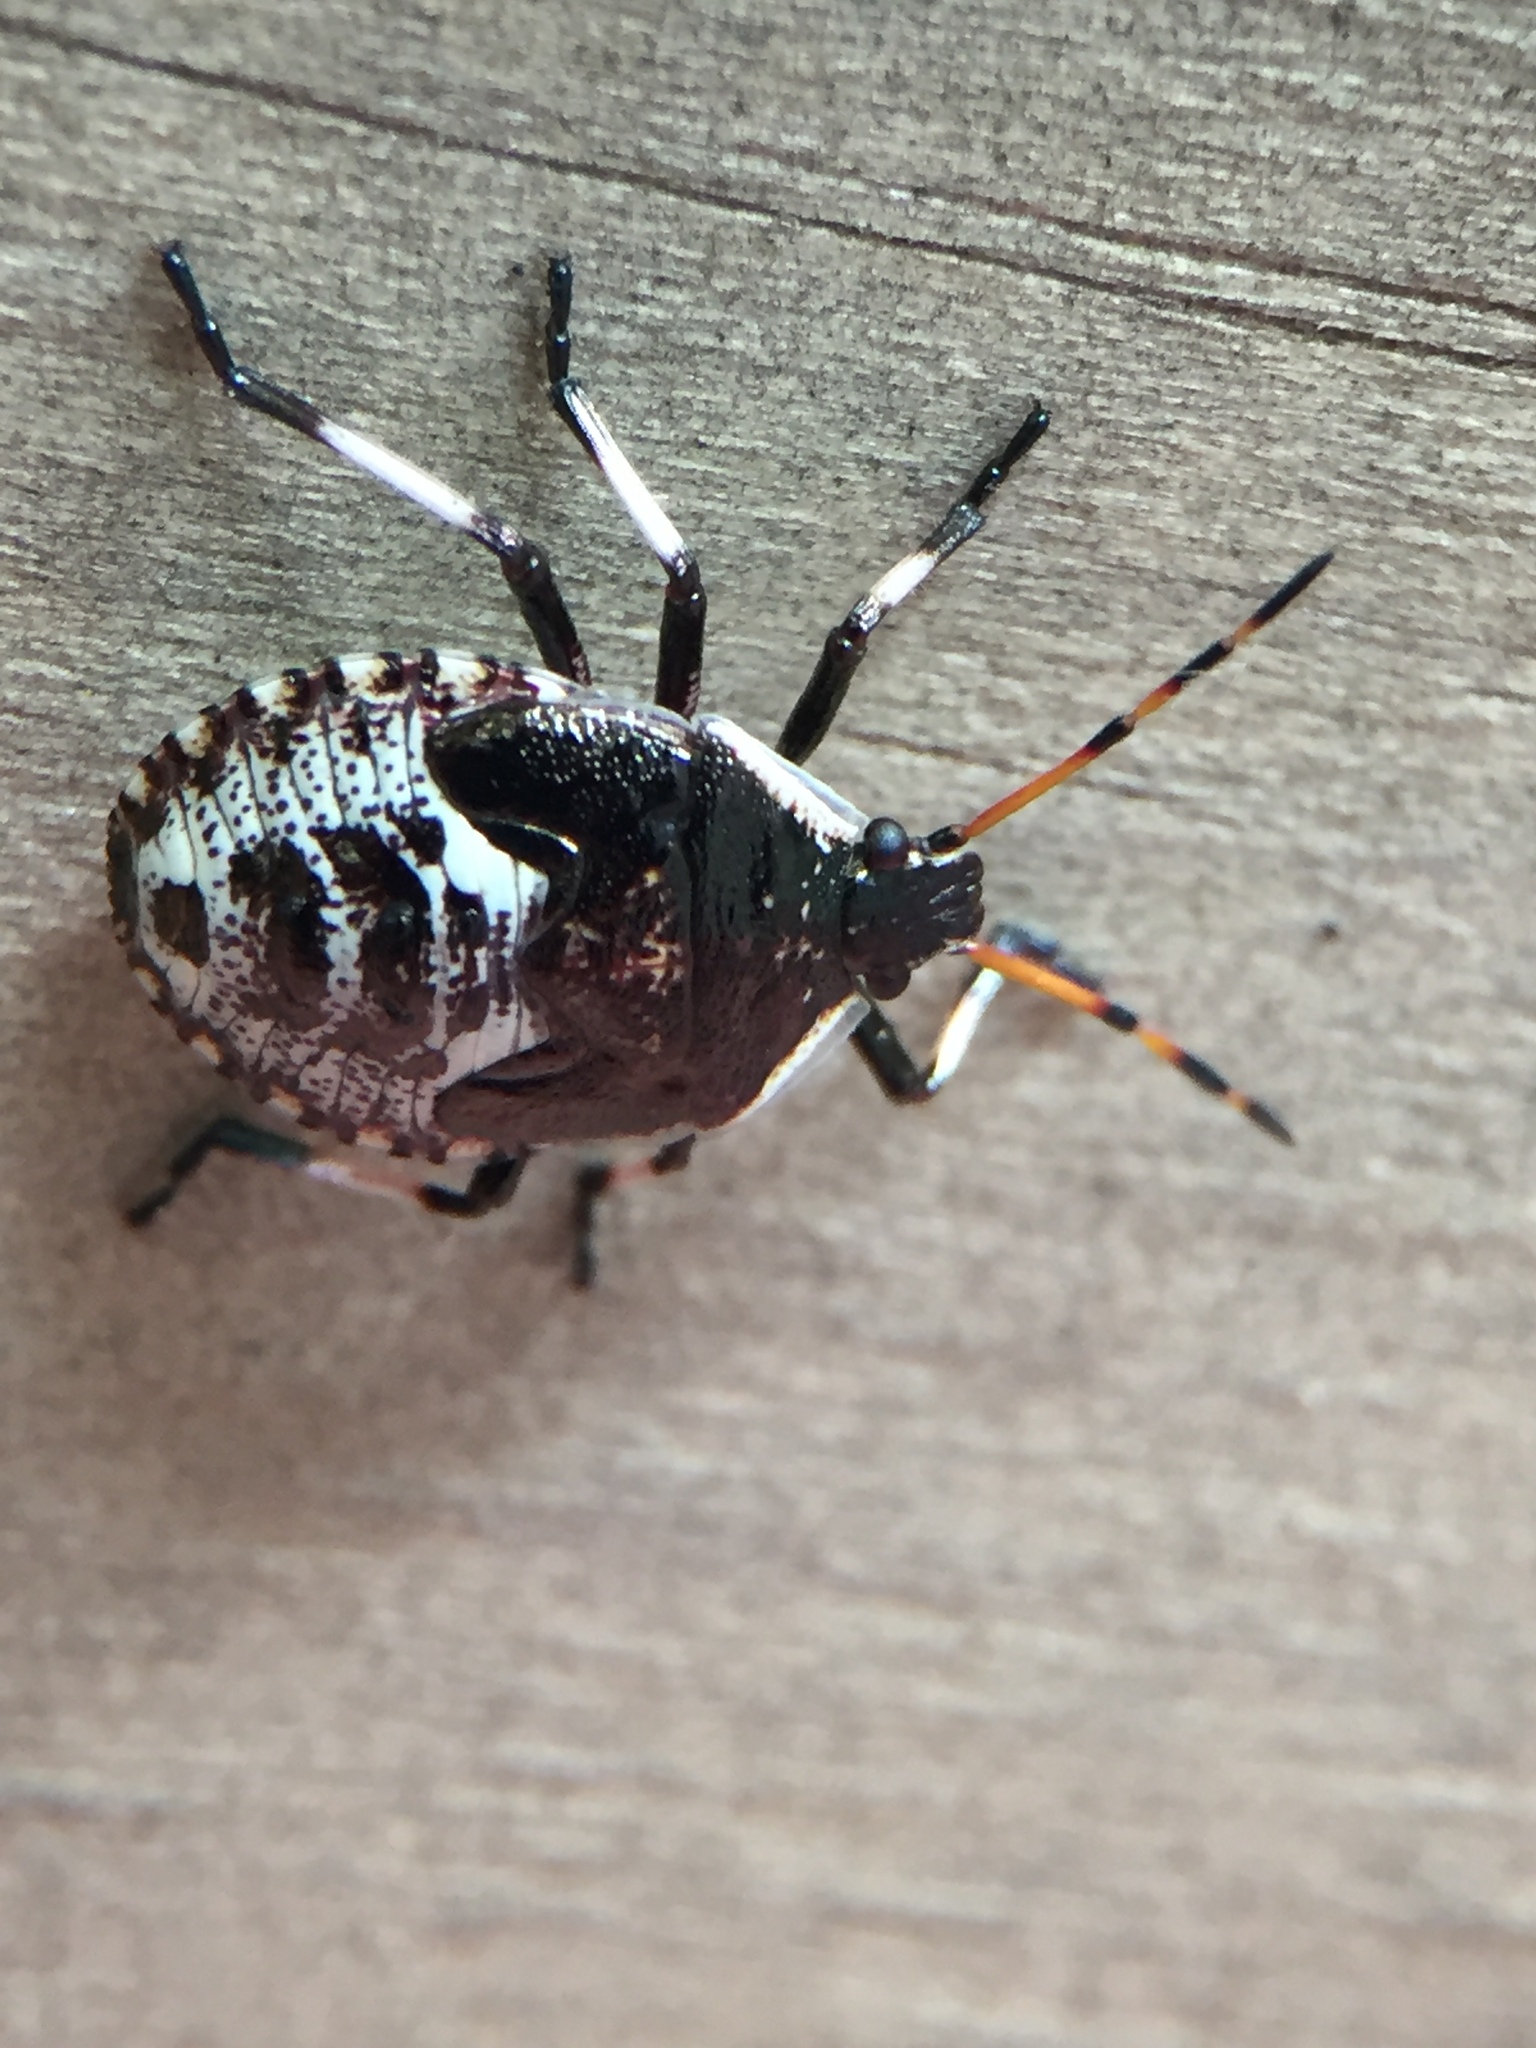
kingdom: Animalia
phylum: Arthropoda
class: Insecta
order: Hemiptera
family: Pentatomidae
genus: Cermatulus
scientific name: Cermatulus nasalis
